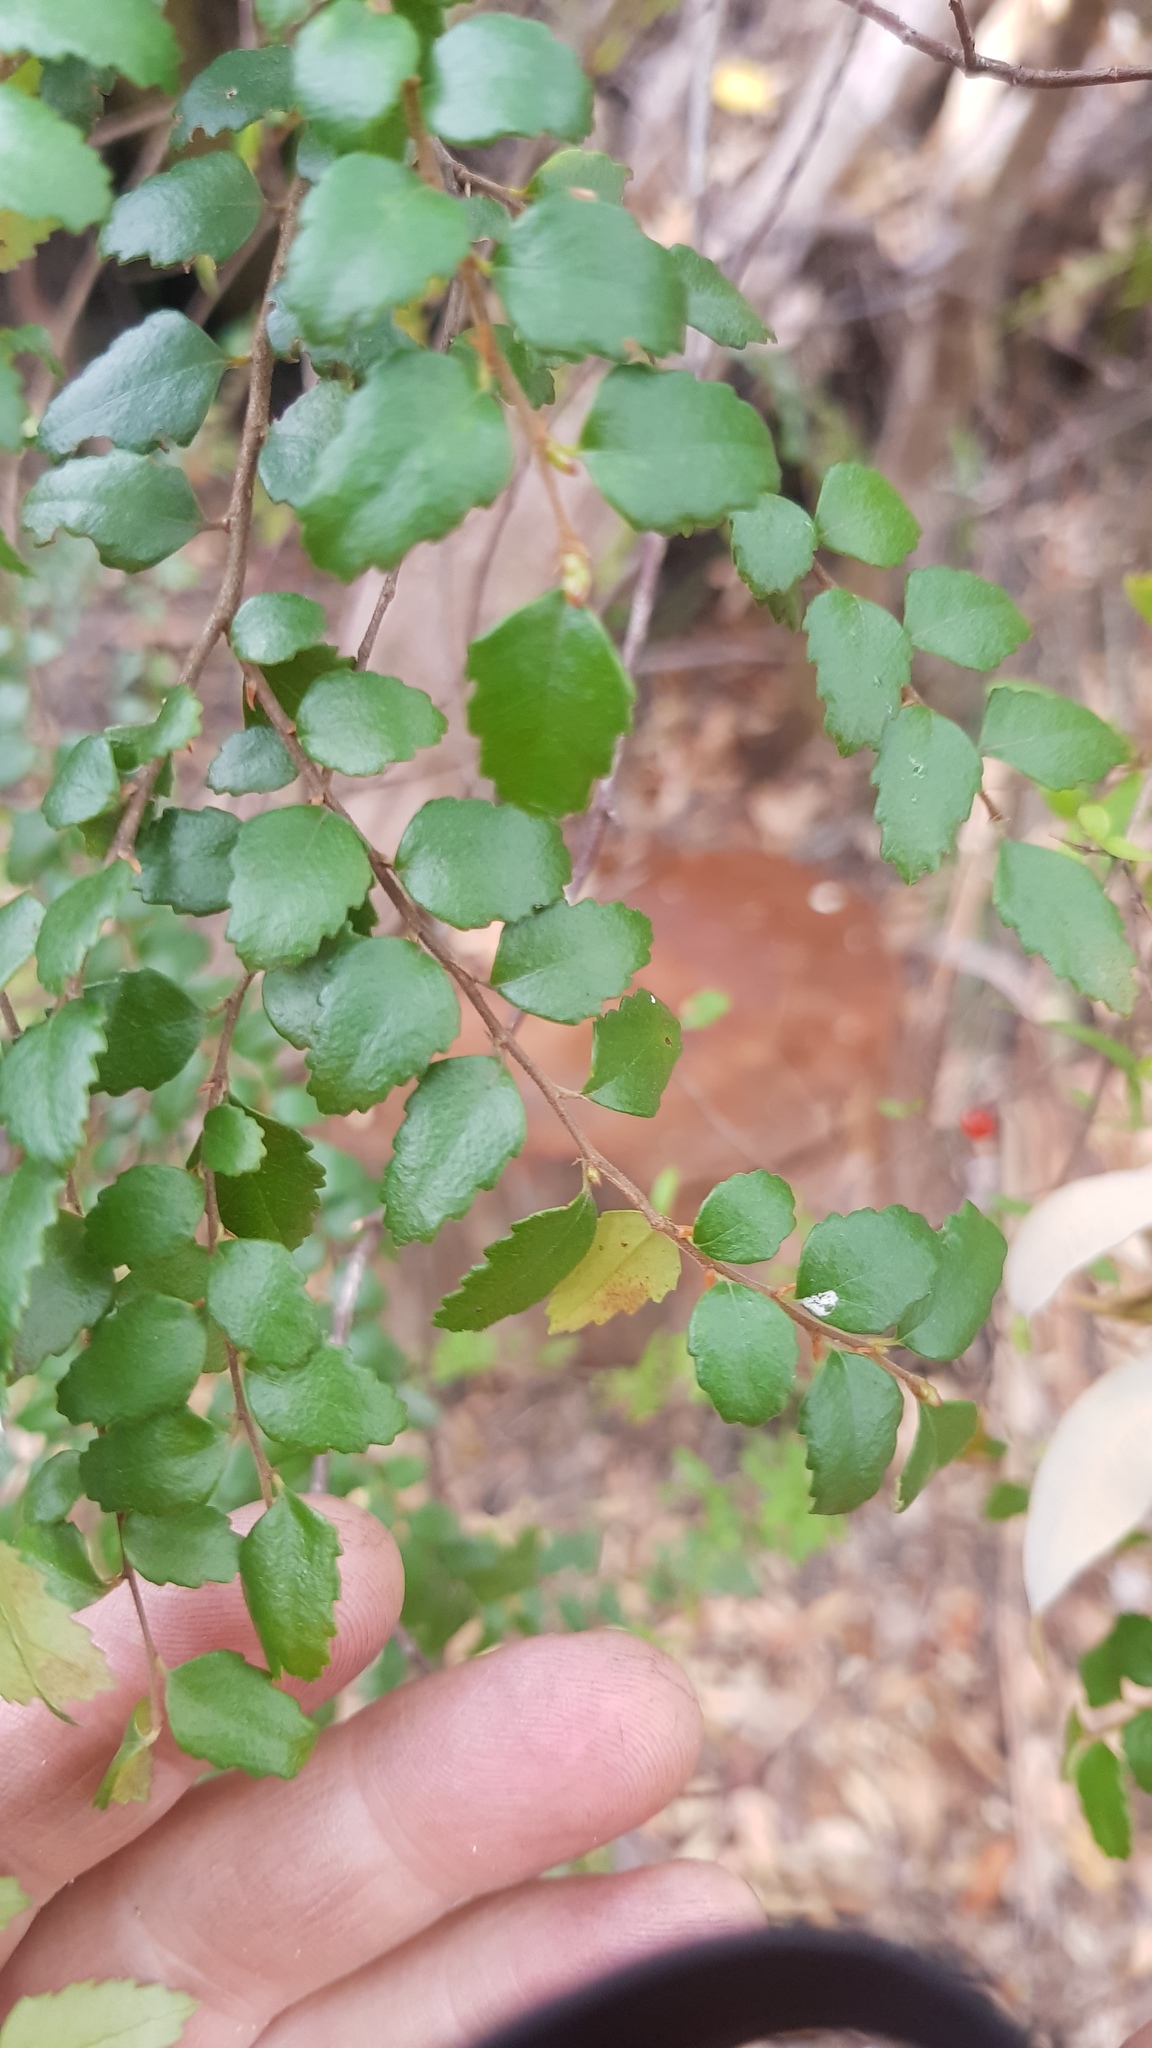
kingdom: Plantae
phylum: Tracheophyta
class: Magnoliopsida
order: Fagales
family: Nothofagaceae
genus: Nothofagus
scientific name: Nothofagus cunninghamii
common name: Myrtle beech
